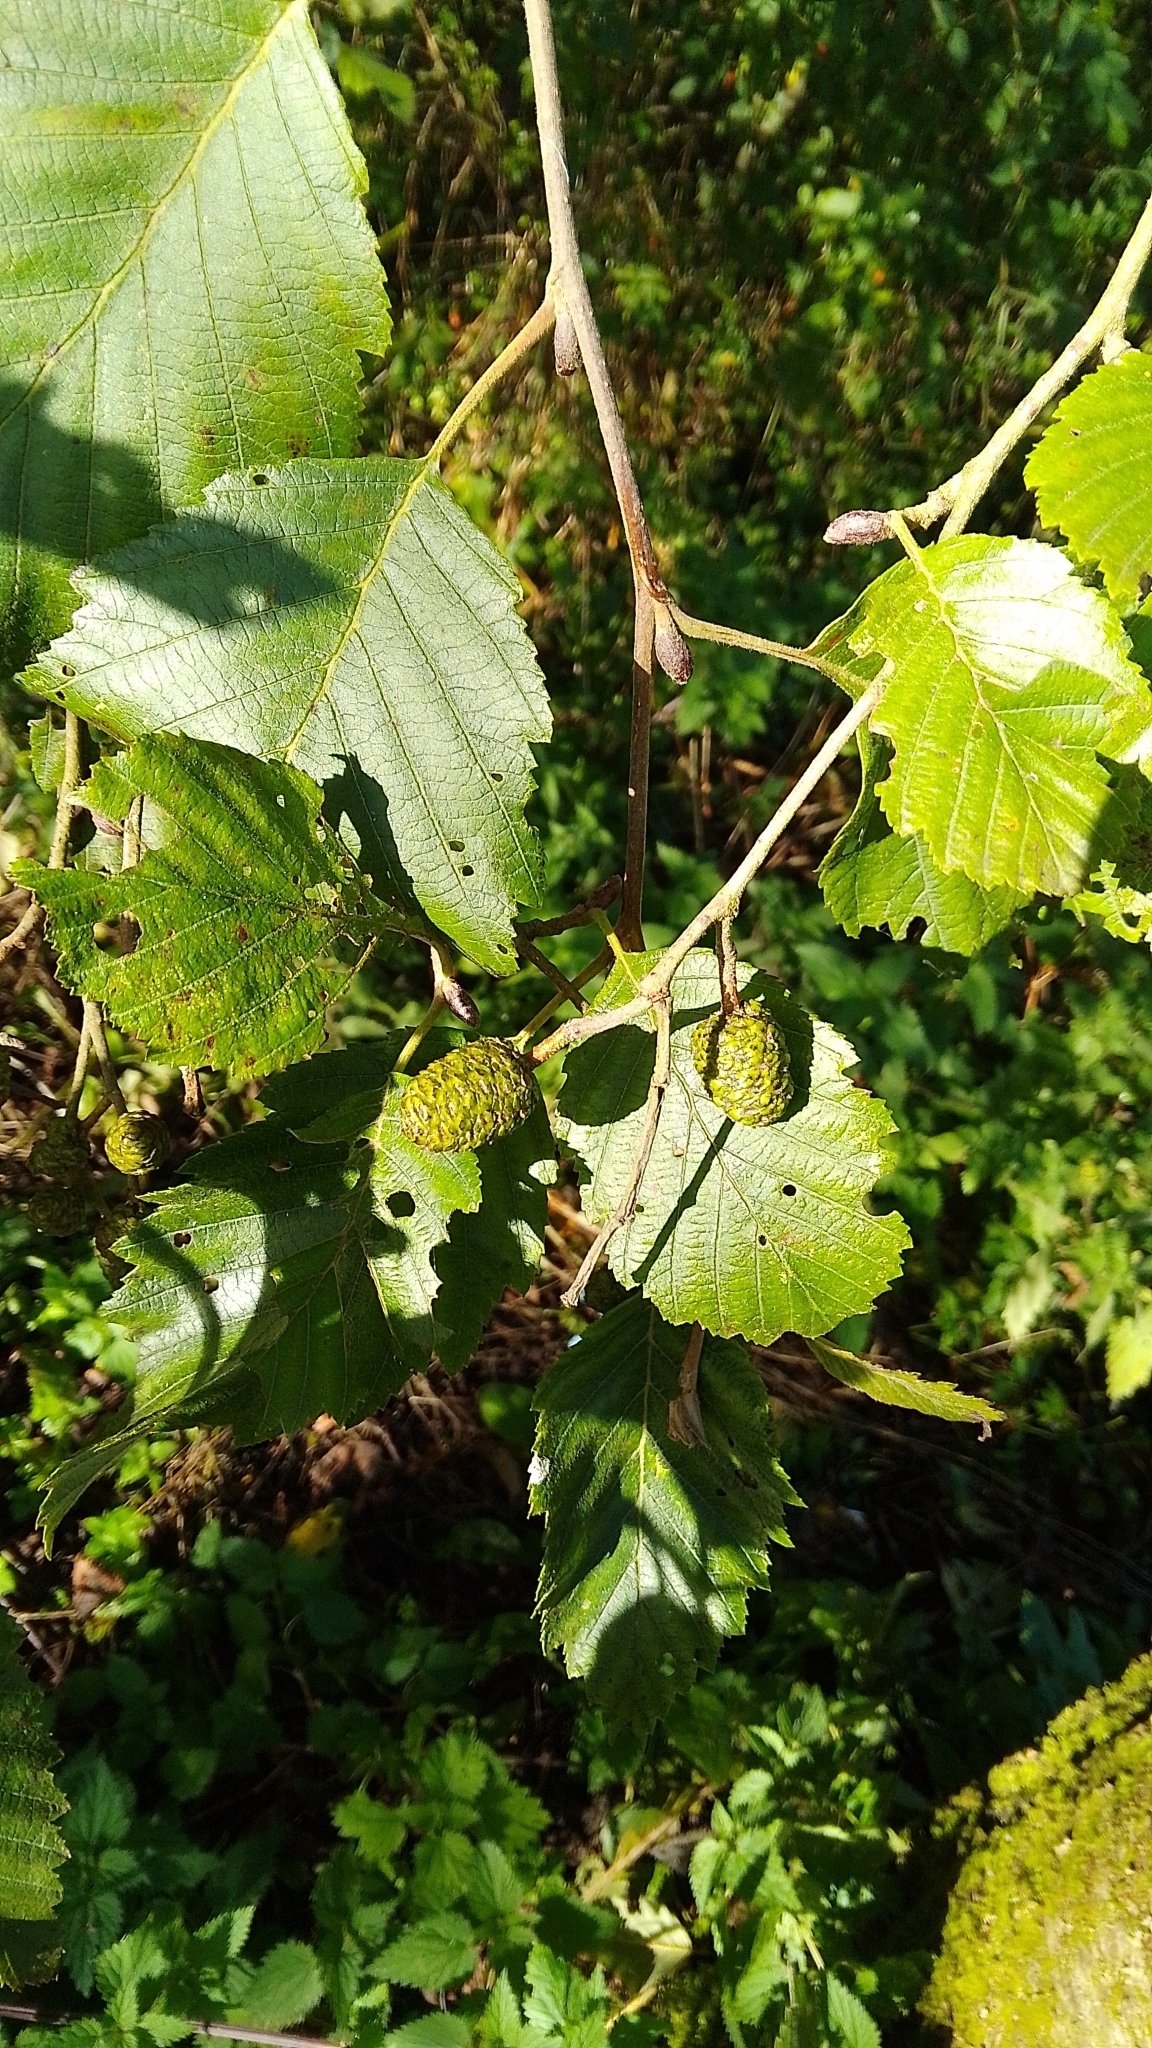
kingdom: Plantae
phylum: Tracheophyta
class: Magnoliopsida
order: Fagales
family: Betulaceae
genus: Alnus
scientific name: Alnus glutinosa
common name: Black alder
